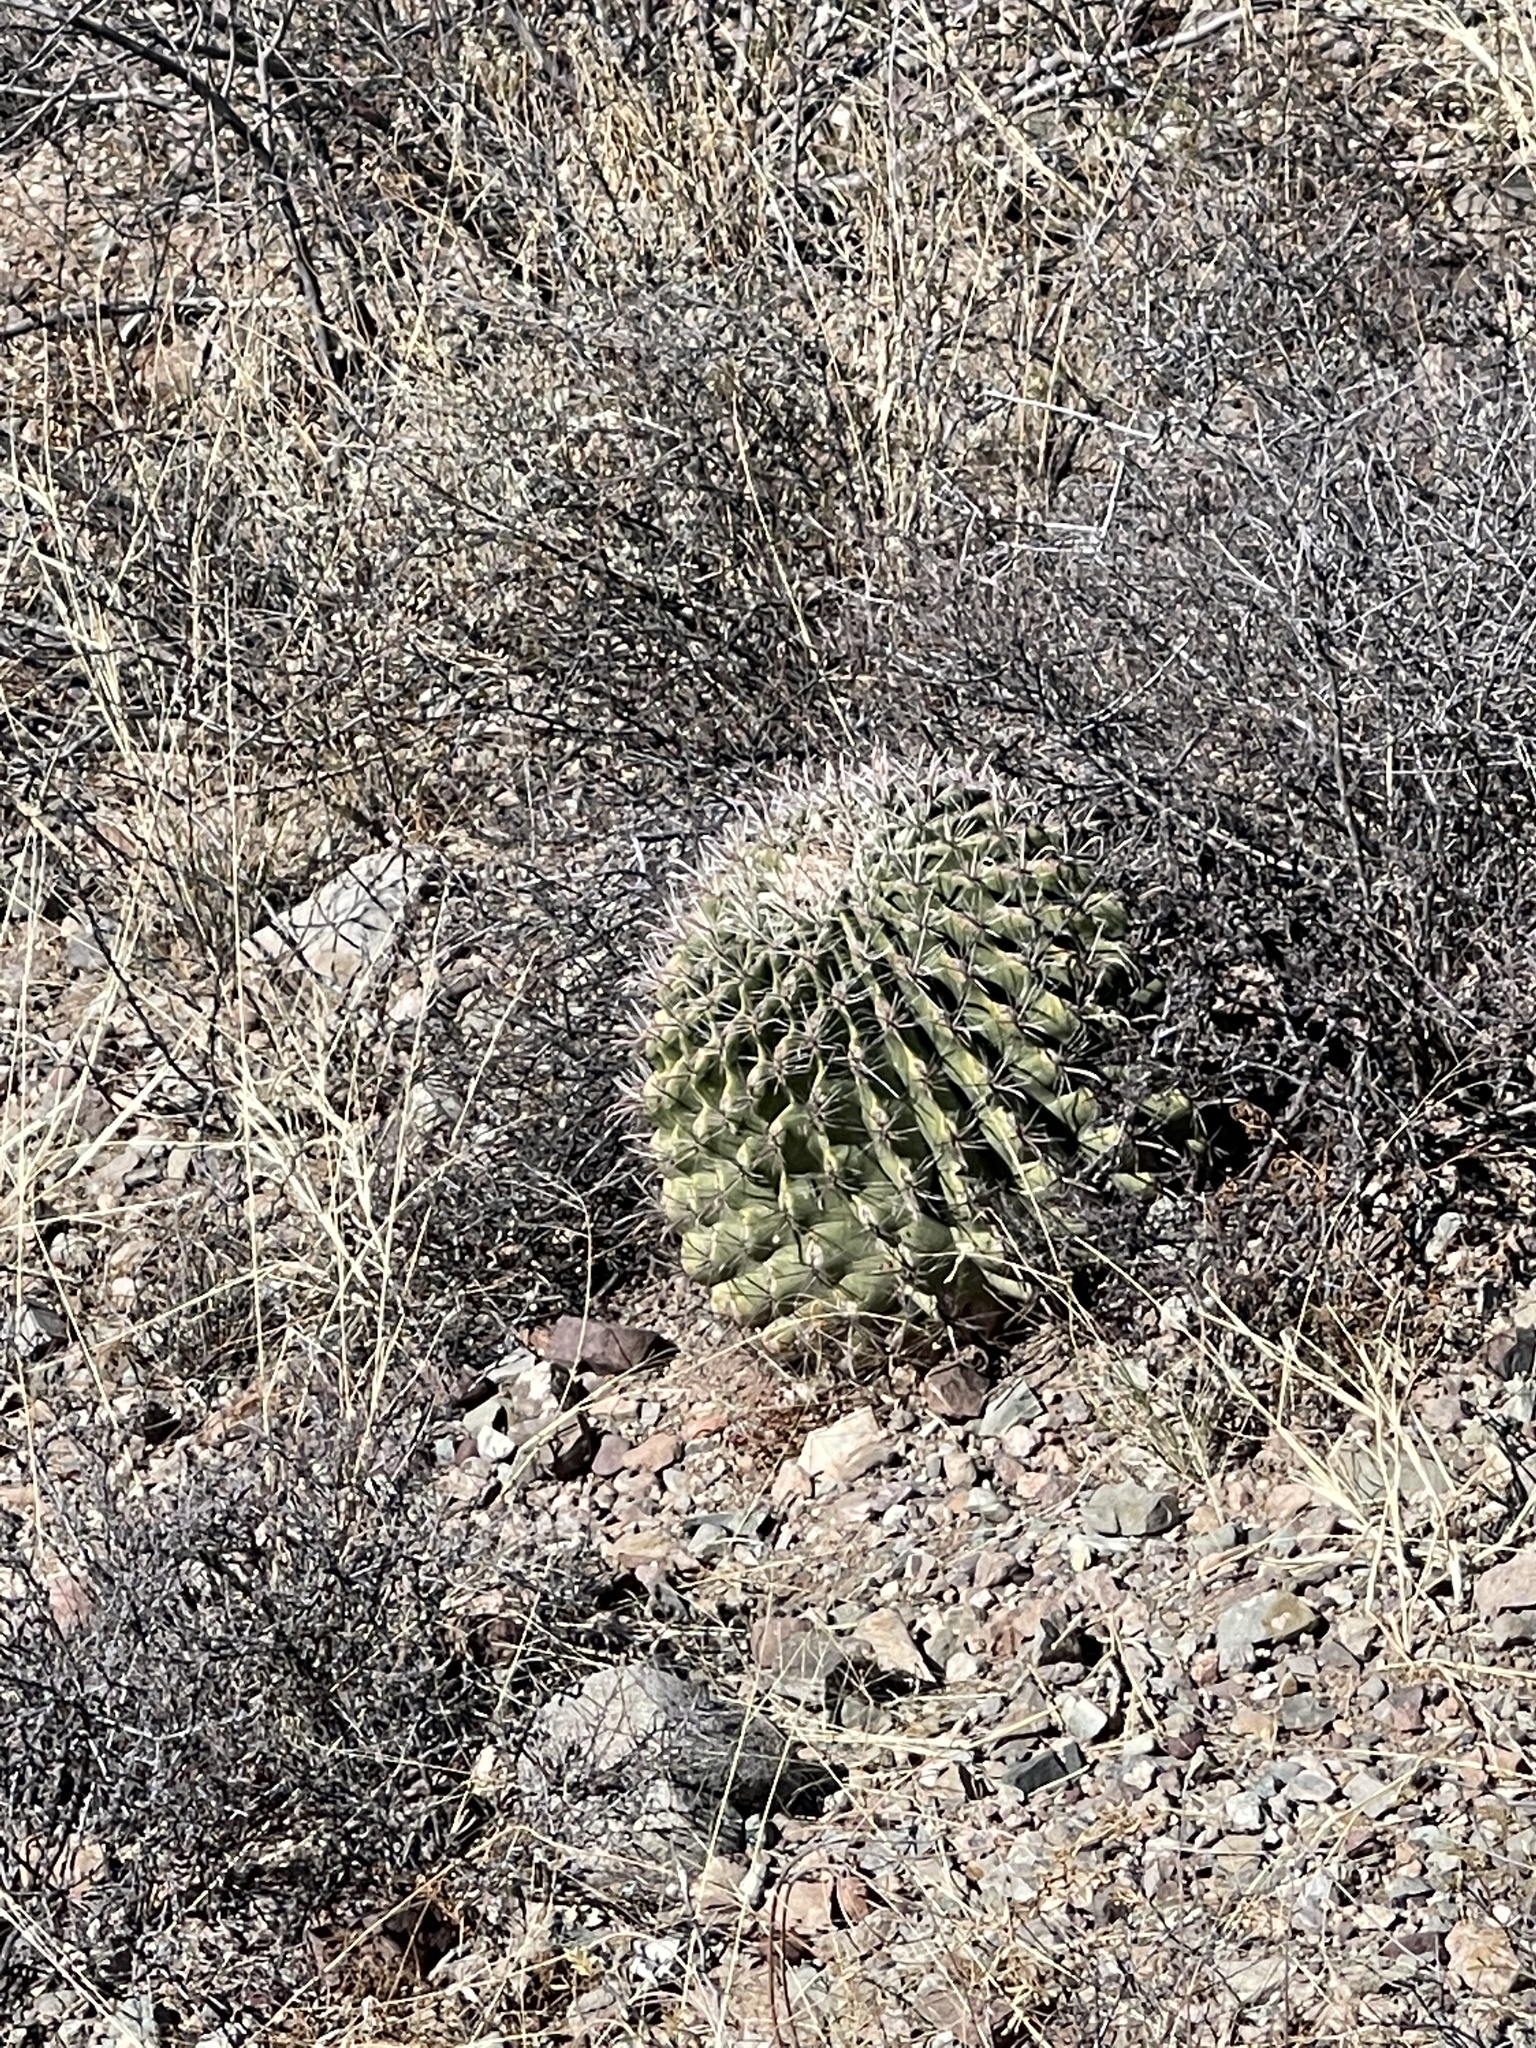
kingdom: Plantae
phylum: Tracheophyta
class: Magnoliopsida
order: Caryophyllales
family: Cactaceae
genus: Ferocactus
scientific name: Ferocactus wislizeni
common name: Candy barrel cactus
